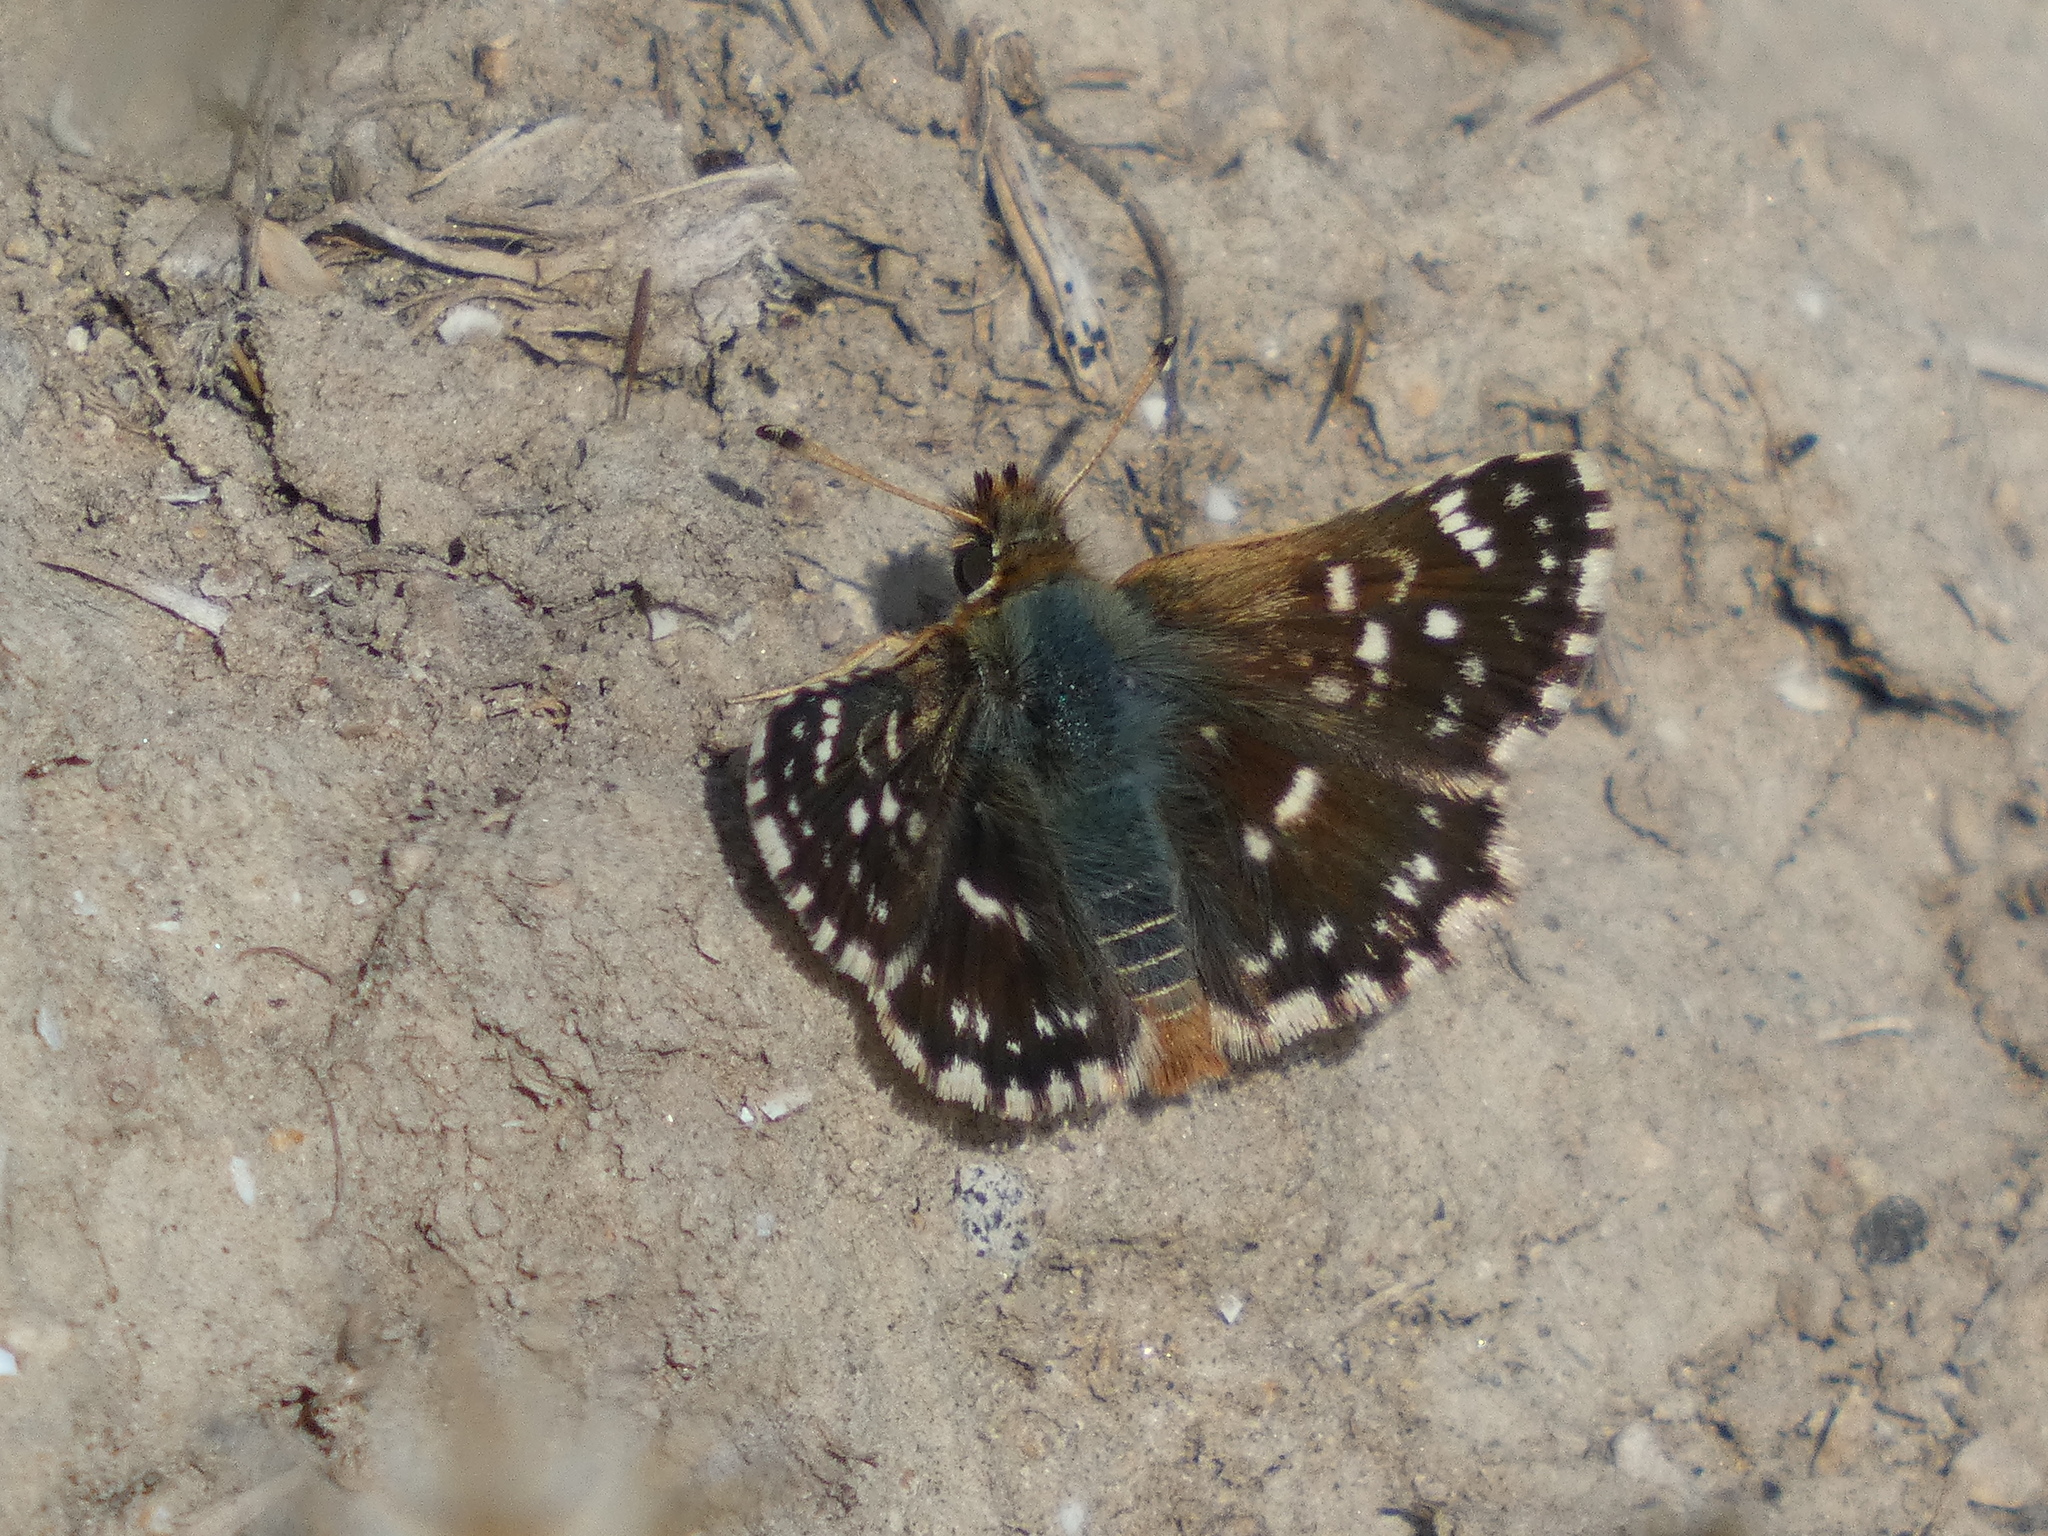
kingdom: Animalia
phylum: Arthropoda
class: Insecta
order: Lepidoptera
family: Hesperiidae
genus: Spialia
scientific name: Spialia sertorius
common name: Red underwing skipper
